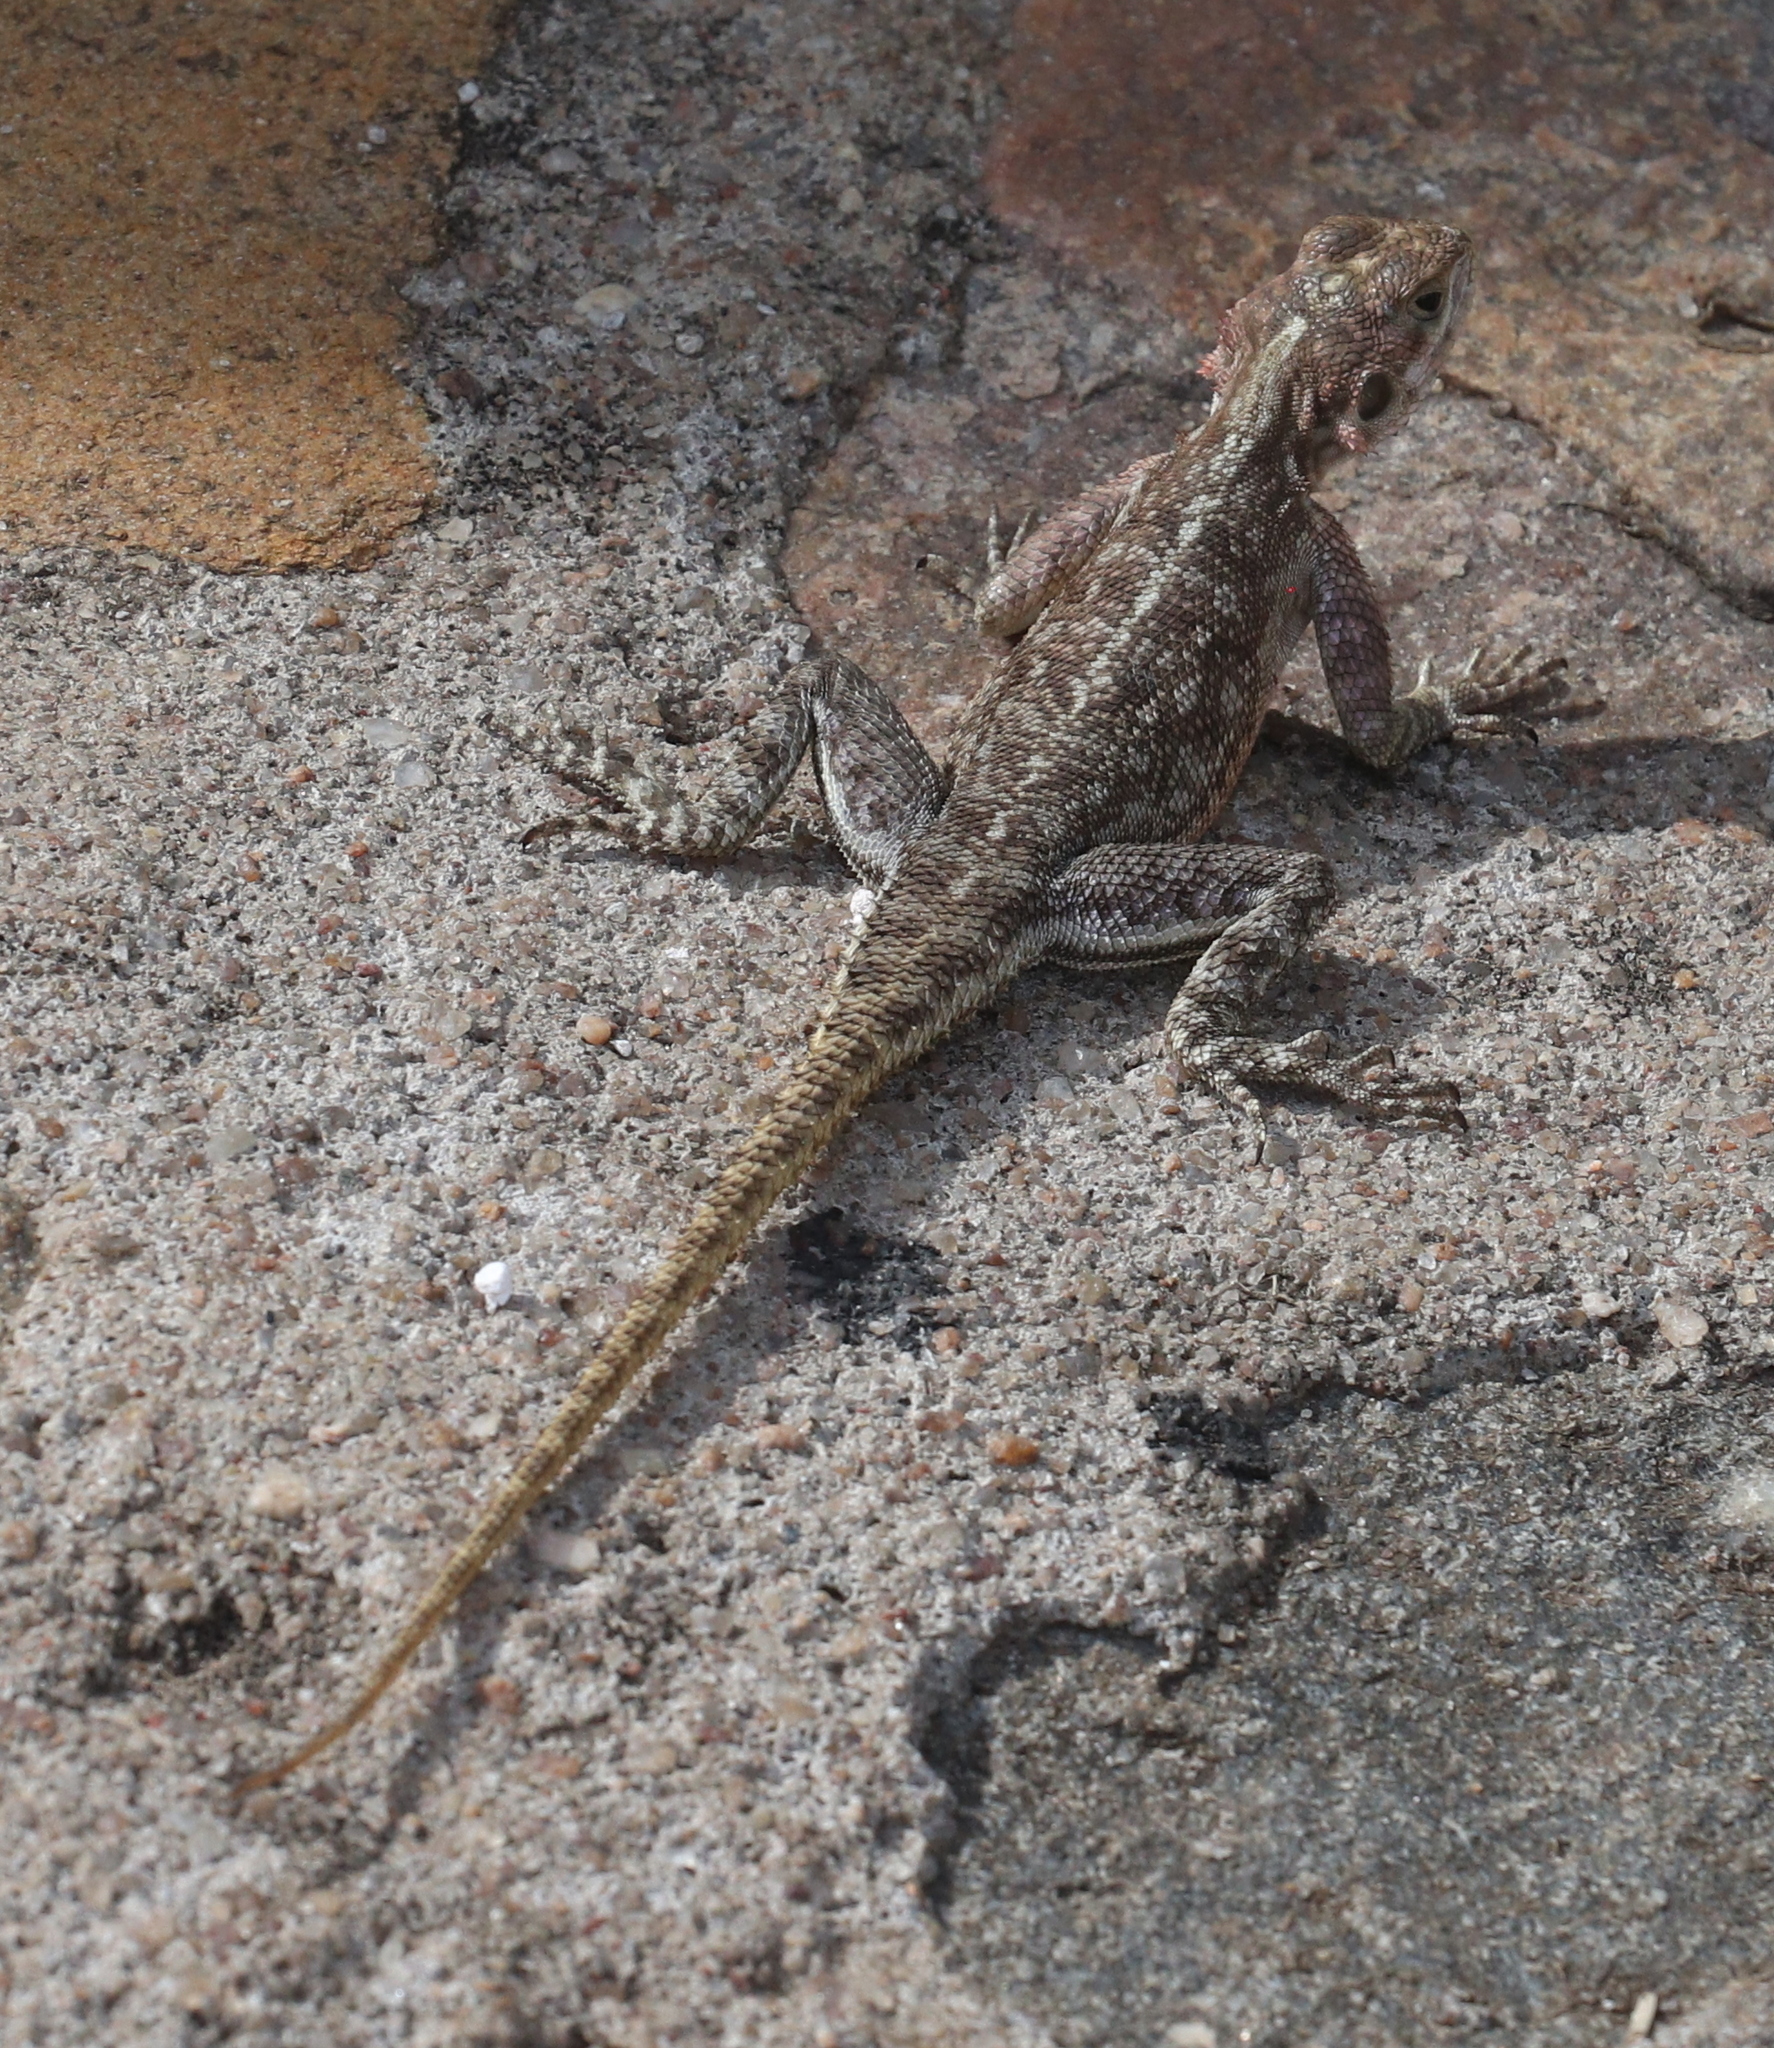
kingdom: Animalia
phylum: Chordata
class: Squamata
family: Agamidae
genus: Acanthocercus
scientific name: Acanthocercus gregorii
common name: Black-necked (ridgeback) agama
